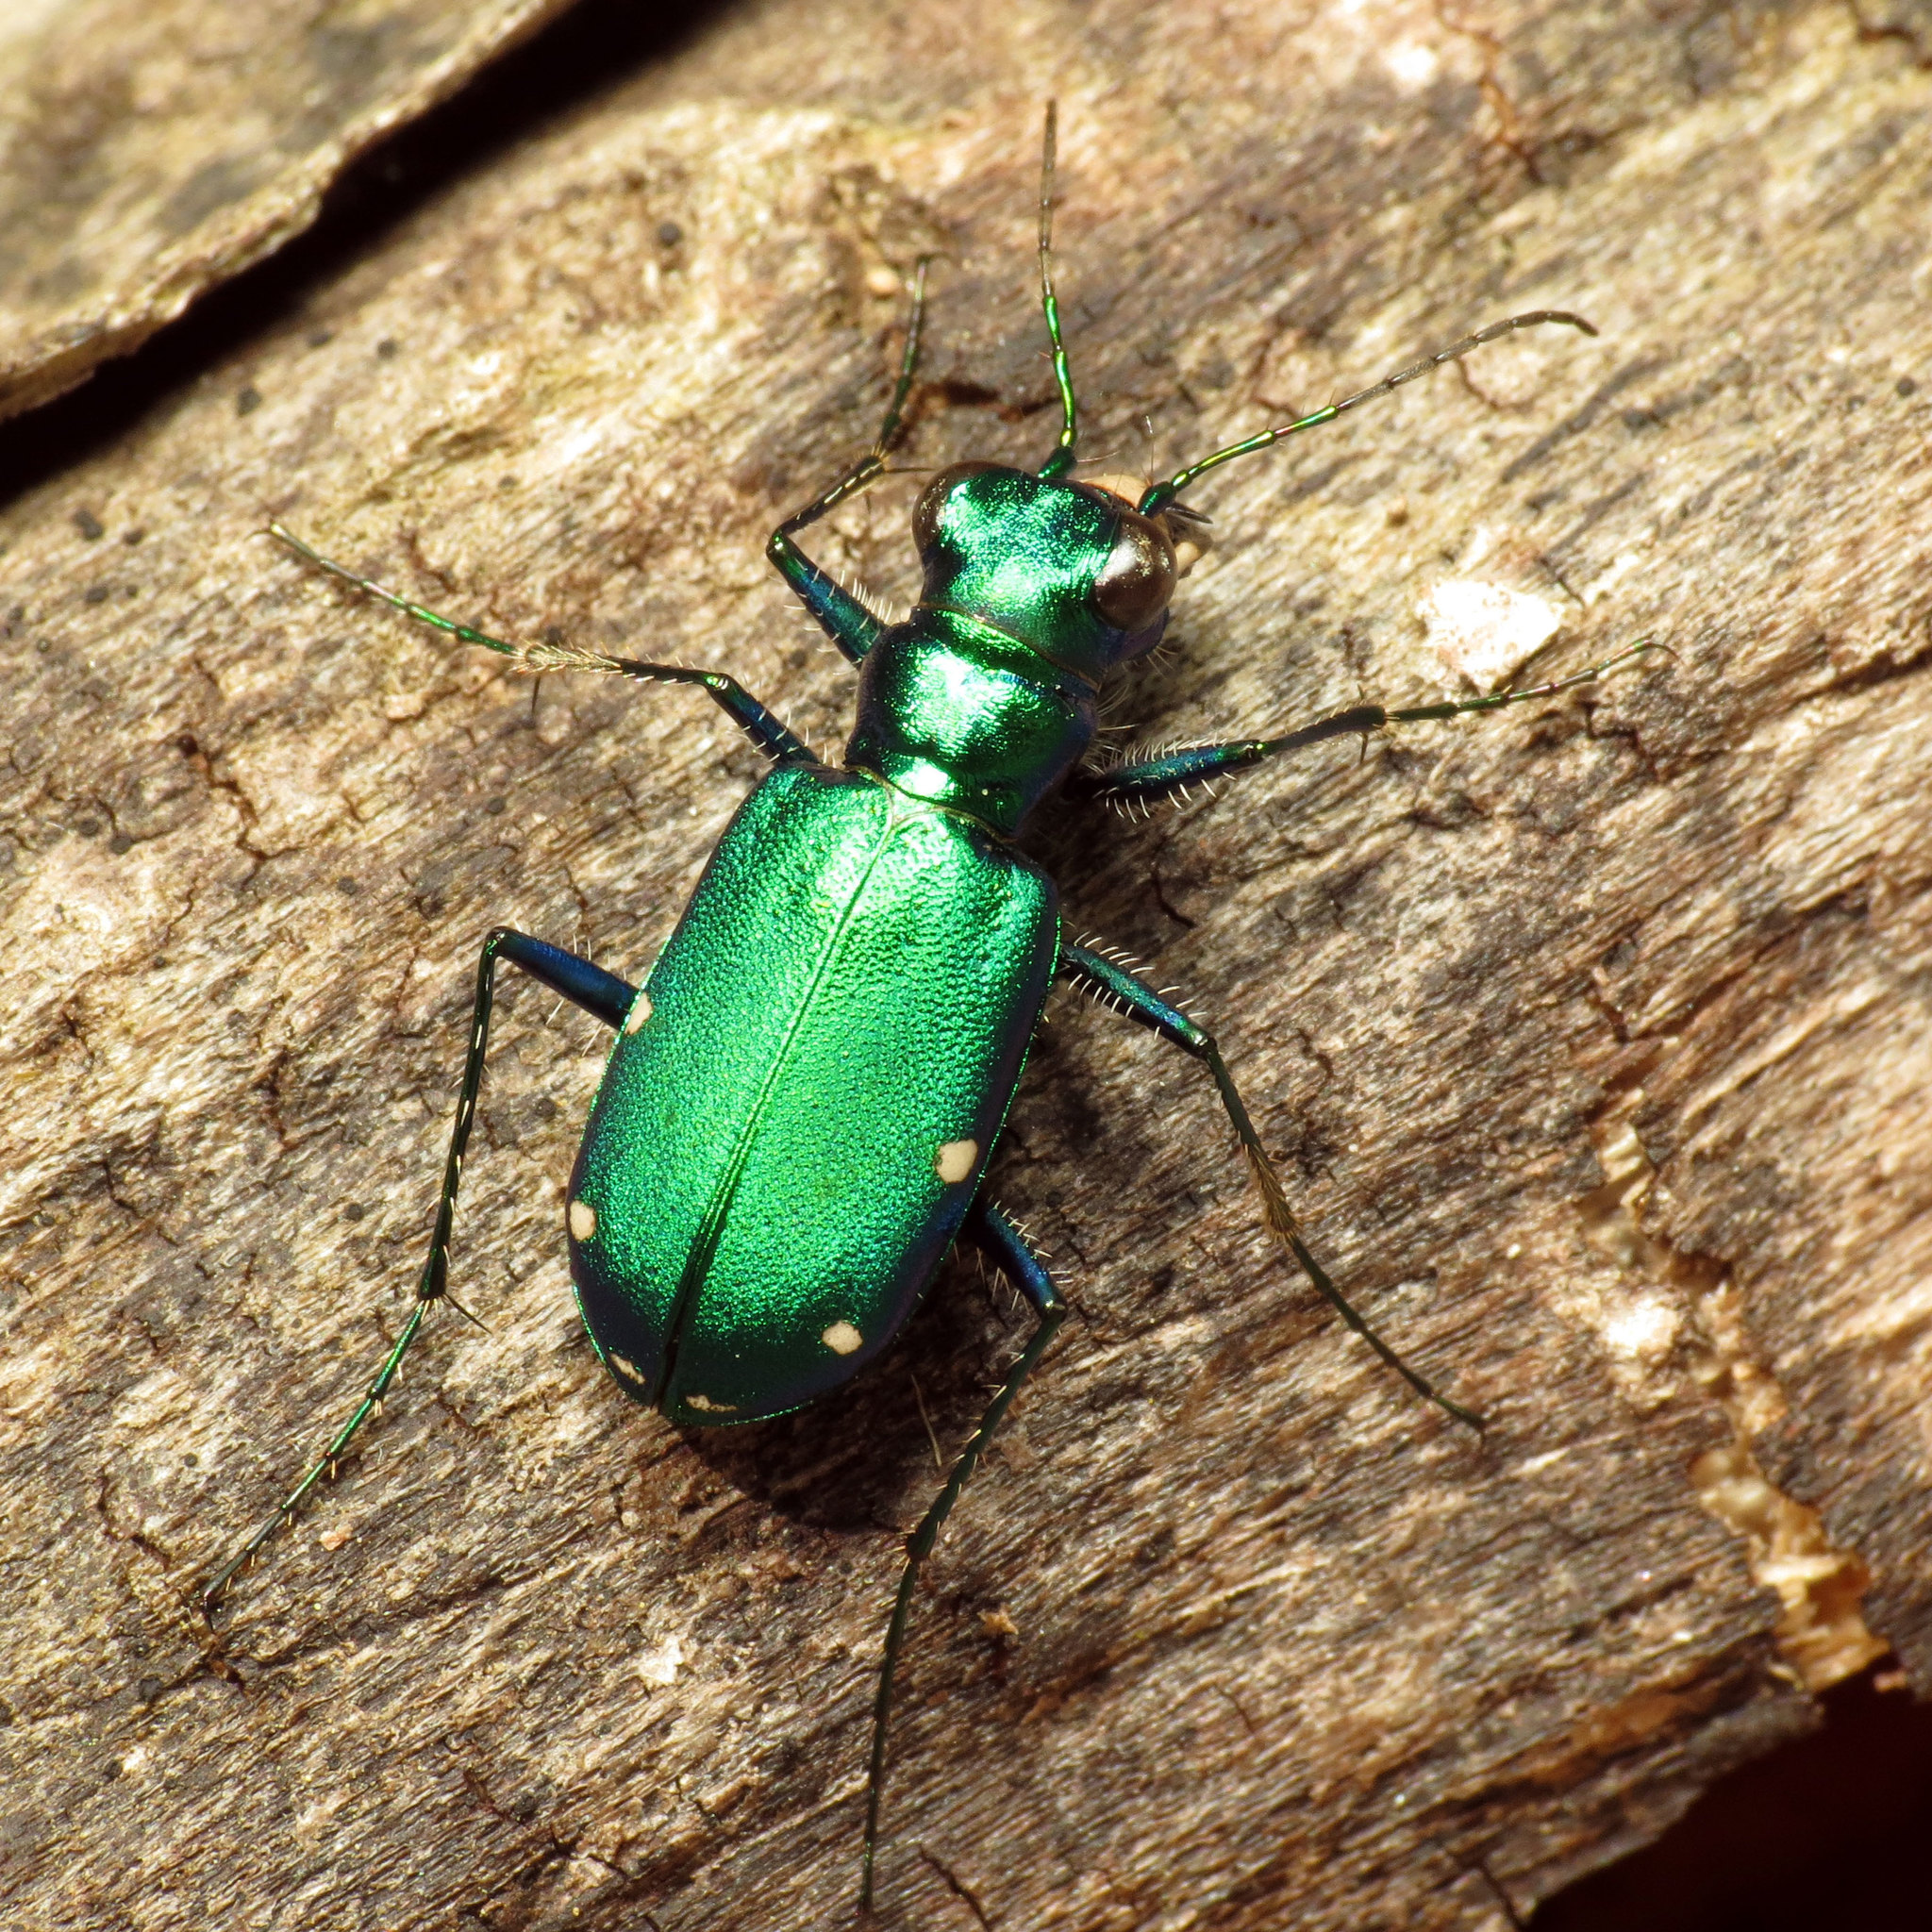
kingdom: Animalia
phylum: Arthropoda
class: Insecta
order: Coleoptera
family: Carabidae
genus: Cicindela
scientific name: Cicindela sexguttata
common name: Six-spotted tiger beetle
